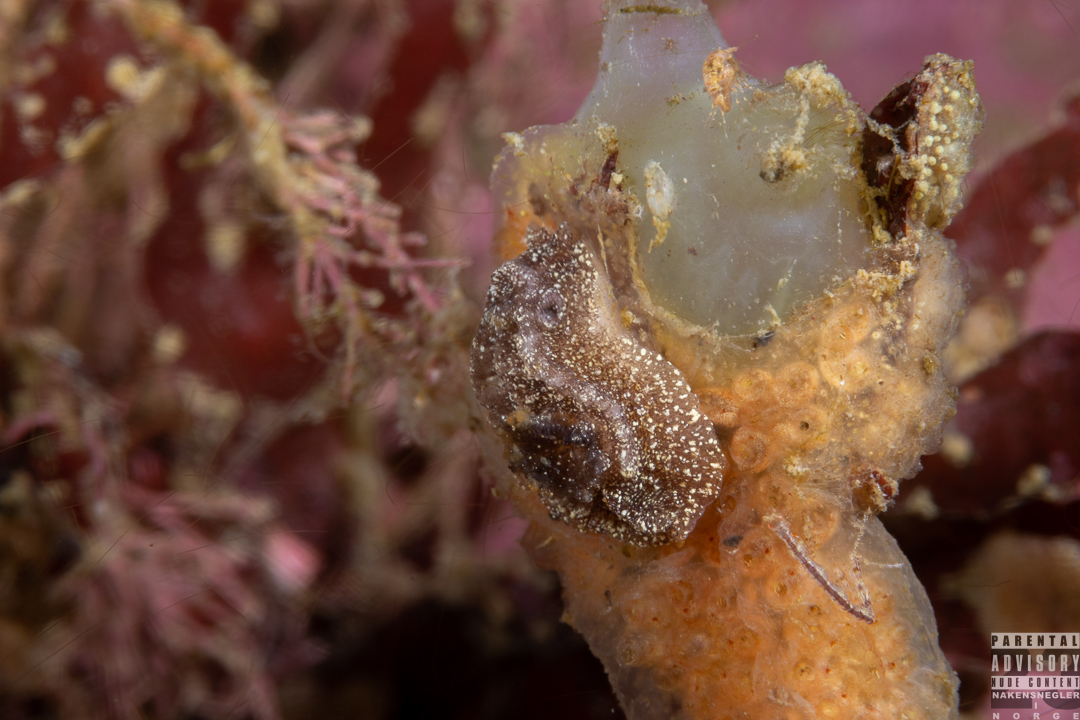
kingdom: Animalia
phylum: Mollusca
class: Gastropoda
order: Nudibranchia
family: Goniodorididae
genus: Pelagella
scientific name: Pelagella castanea
